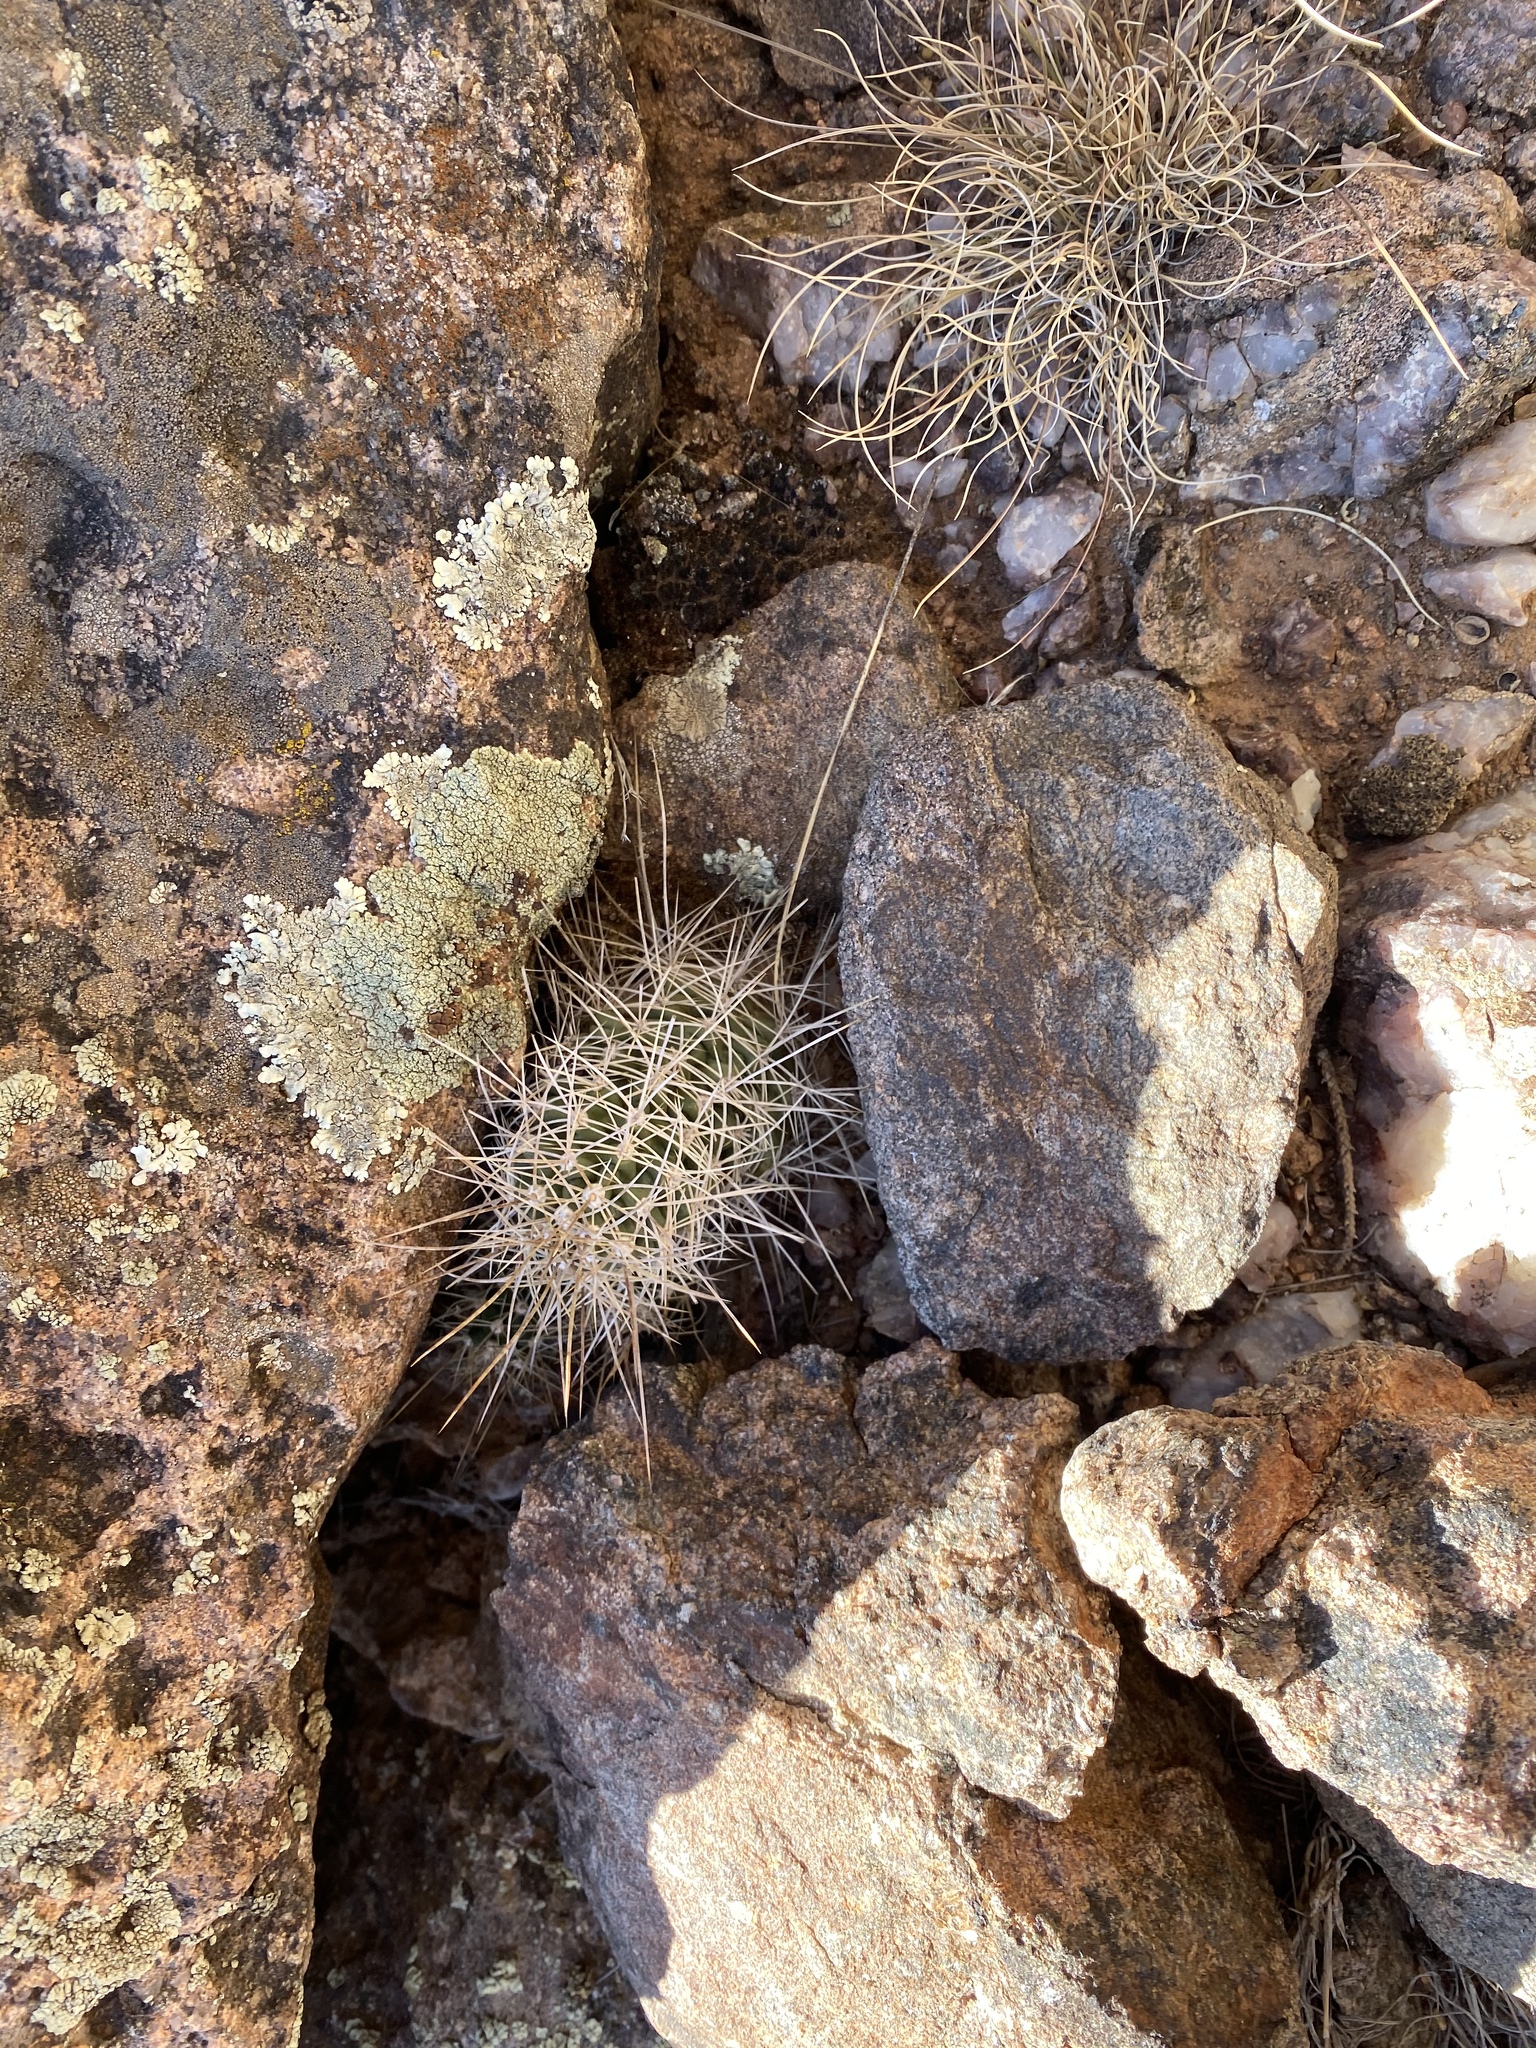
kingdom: Plantae
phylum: Tracheophyta
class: Magnoliopsida
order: Caryophyllales
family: Cactaceae
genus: Echinocereus
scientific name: Echinocereus triglochidiatus
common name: Claretcup hedgehog
